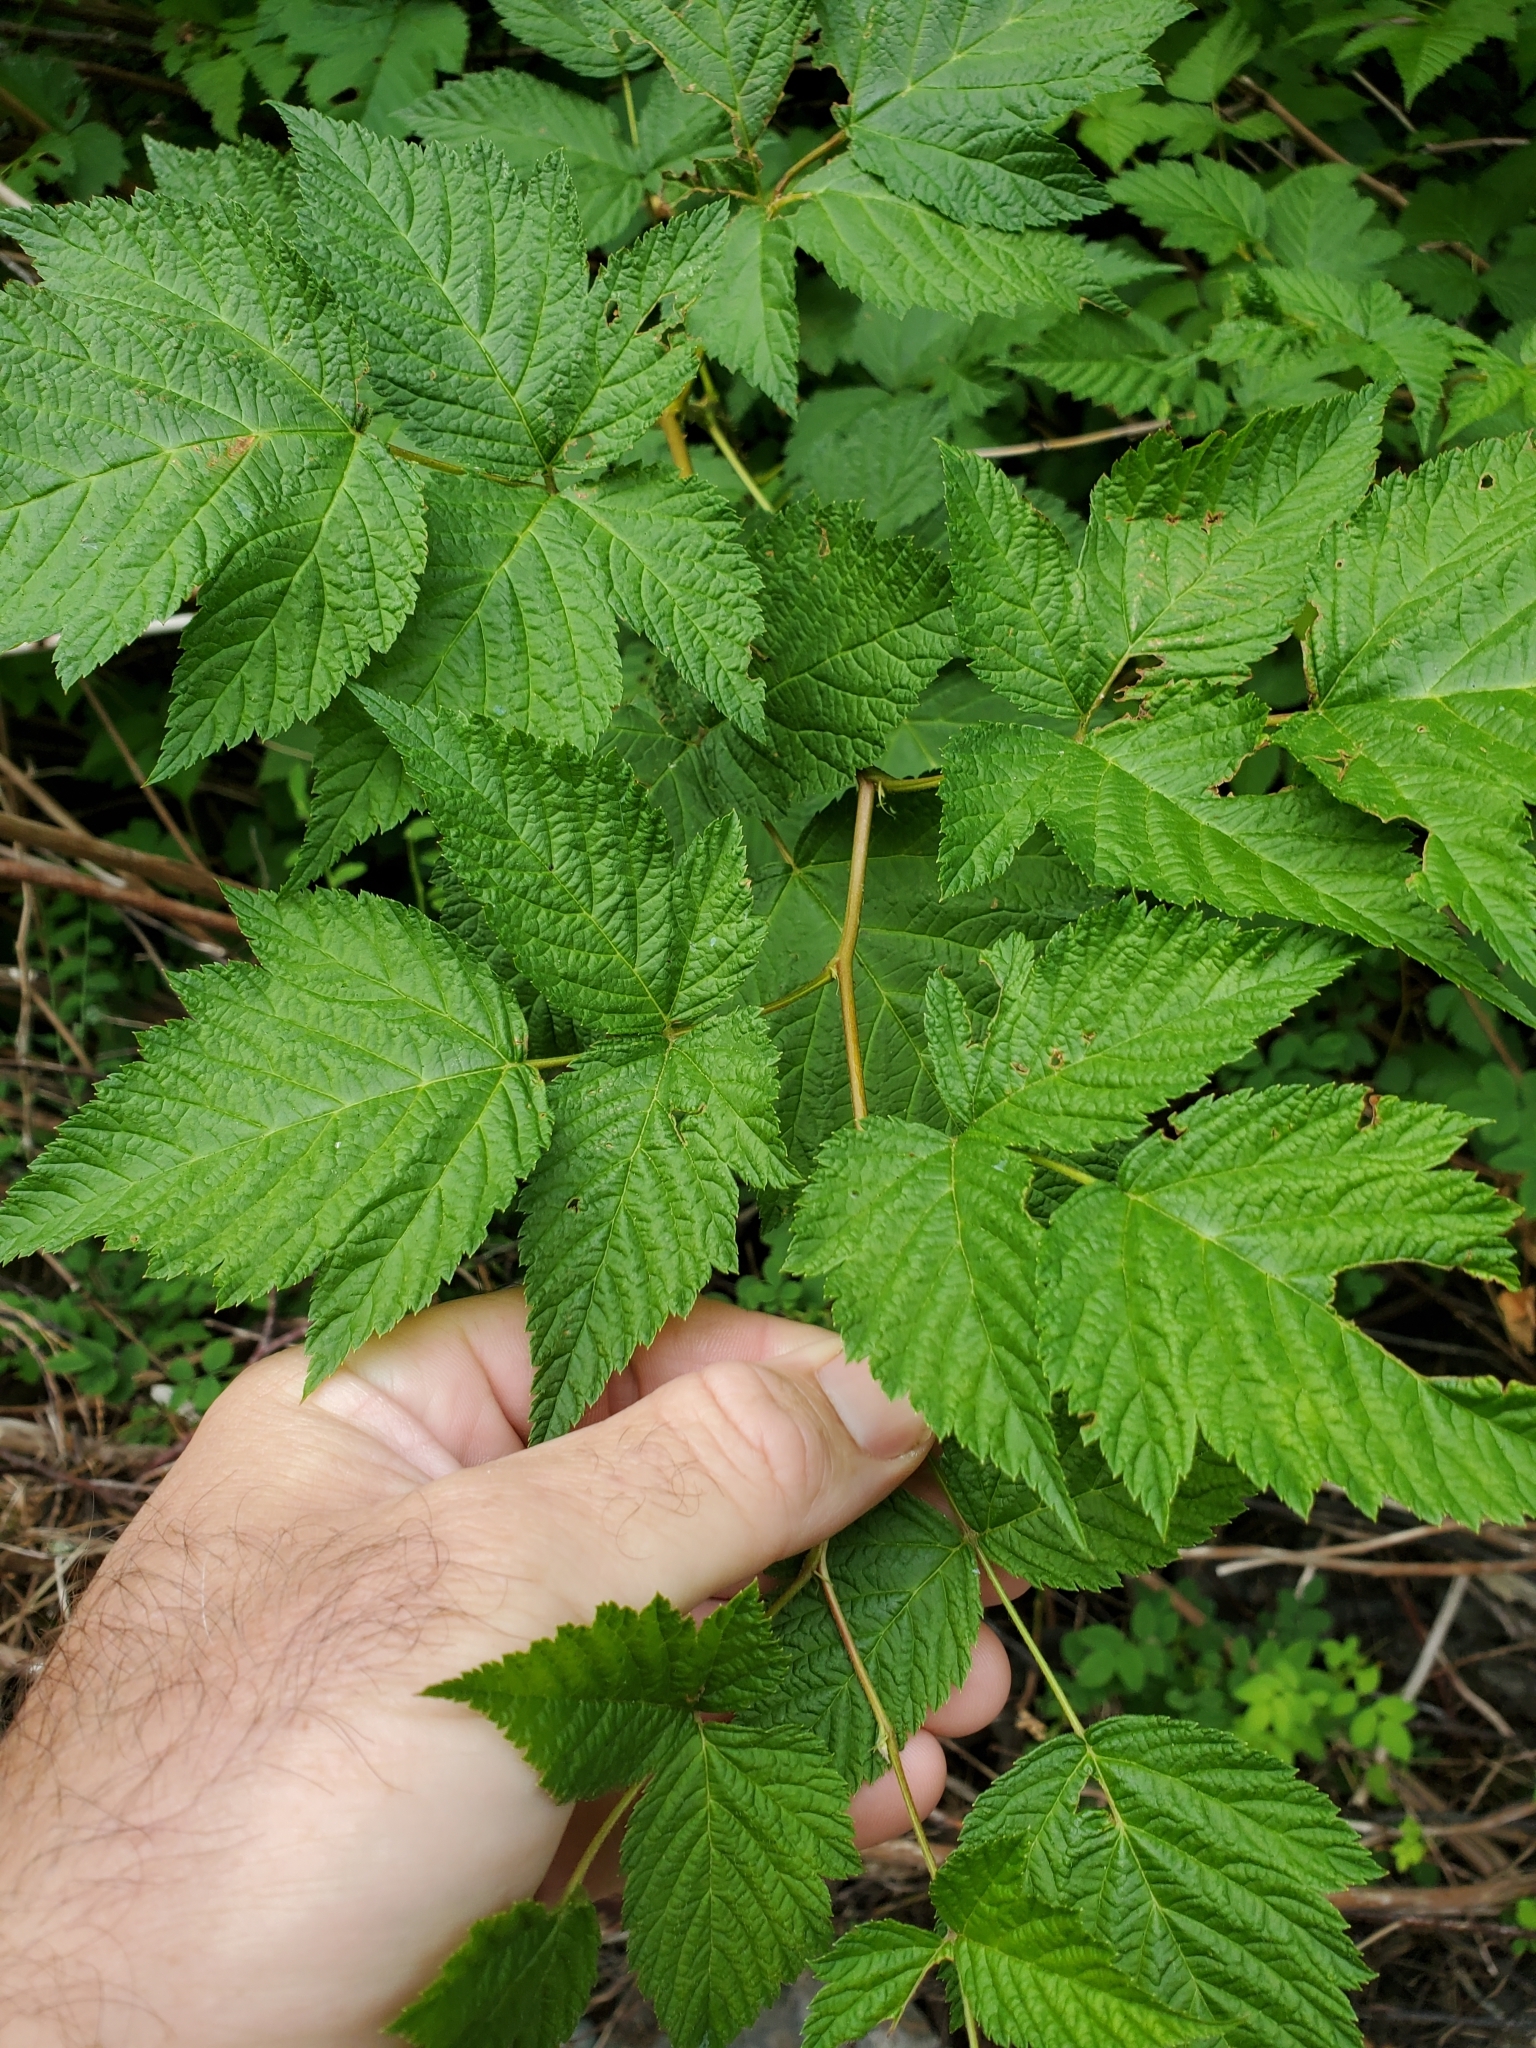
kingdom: Plantae
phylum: Tracheophyta
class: Magnoliopsida
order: Rosales
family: Rosaceae
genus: Rubus
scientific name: Rubus spectabilis
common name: Salmonberry
